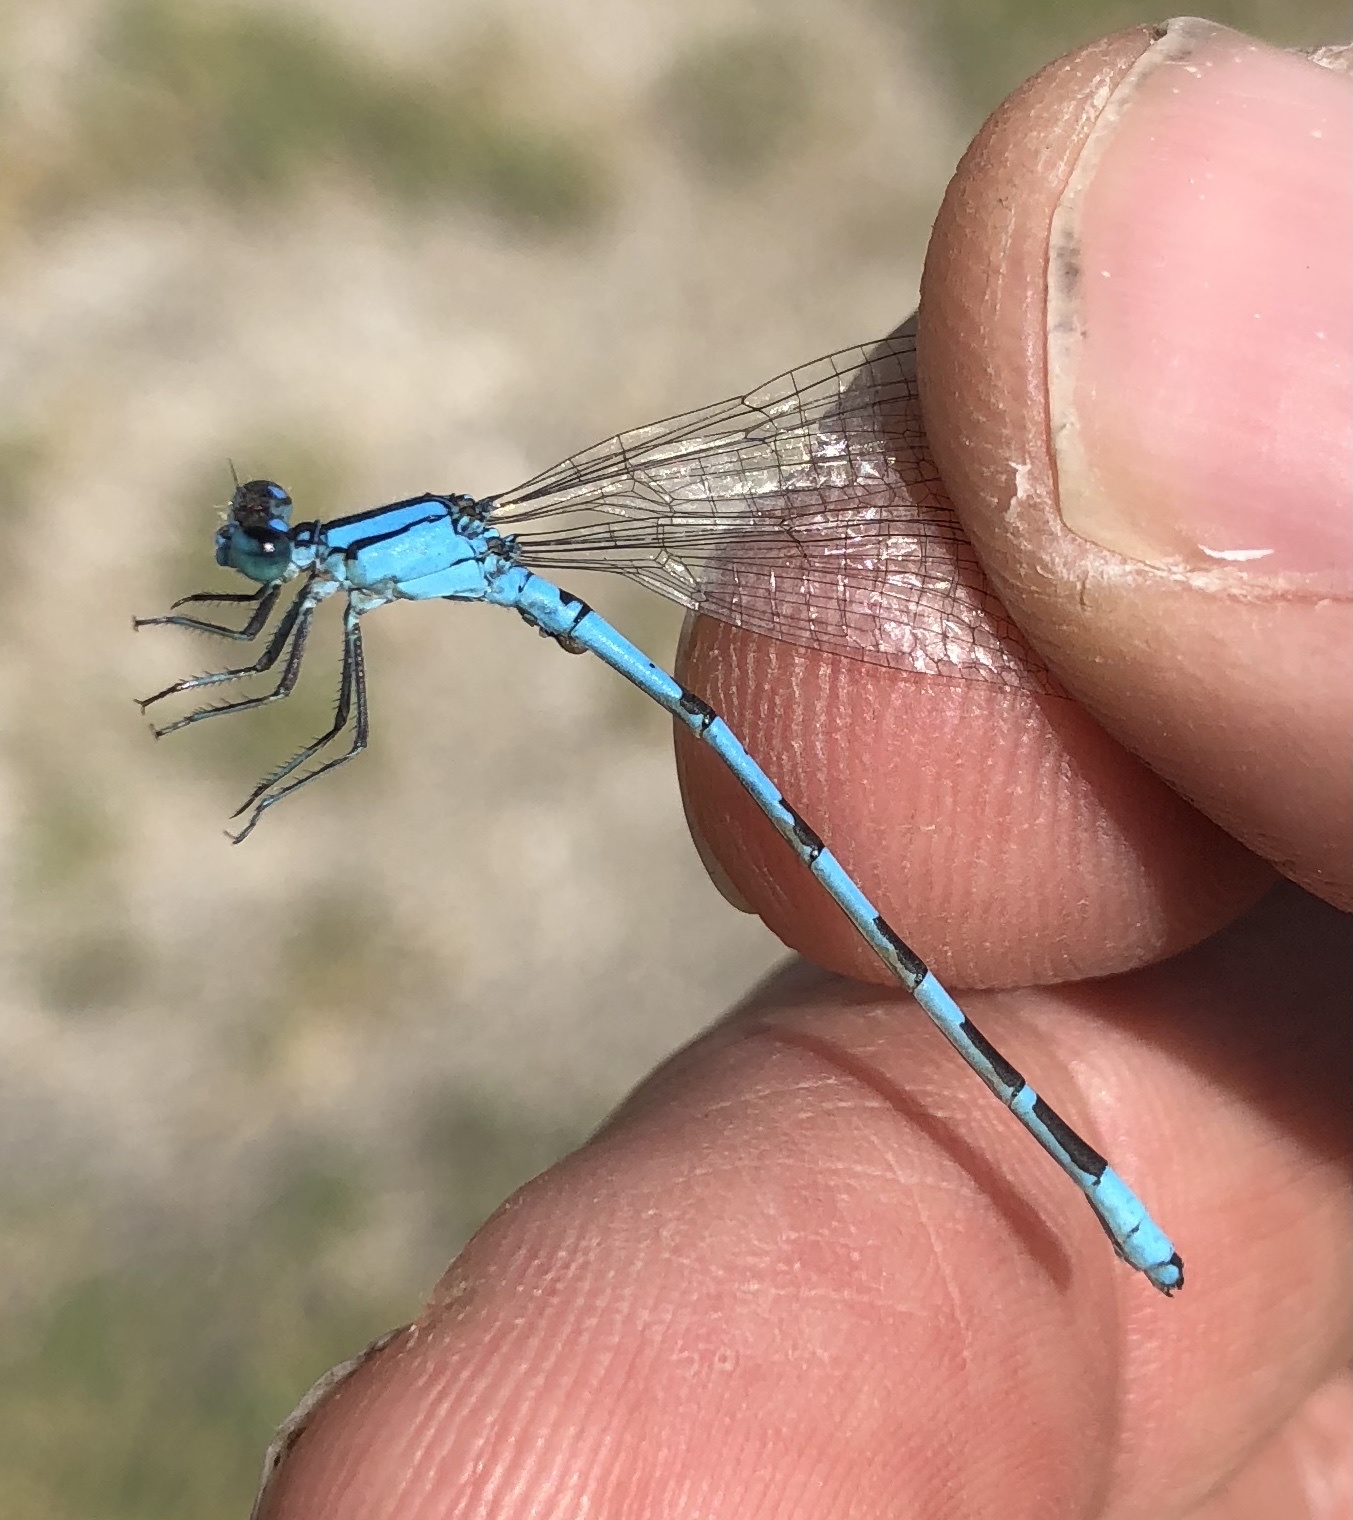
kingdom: Animalia
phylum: Arthropoda
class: Insecta
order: Odonata
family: Coenagrionidae
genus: Enallagma
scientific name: Enallagma clausum
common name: Alkali bluet
